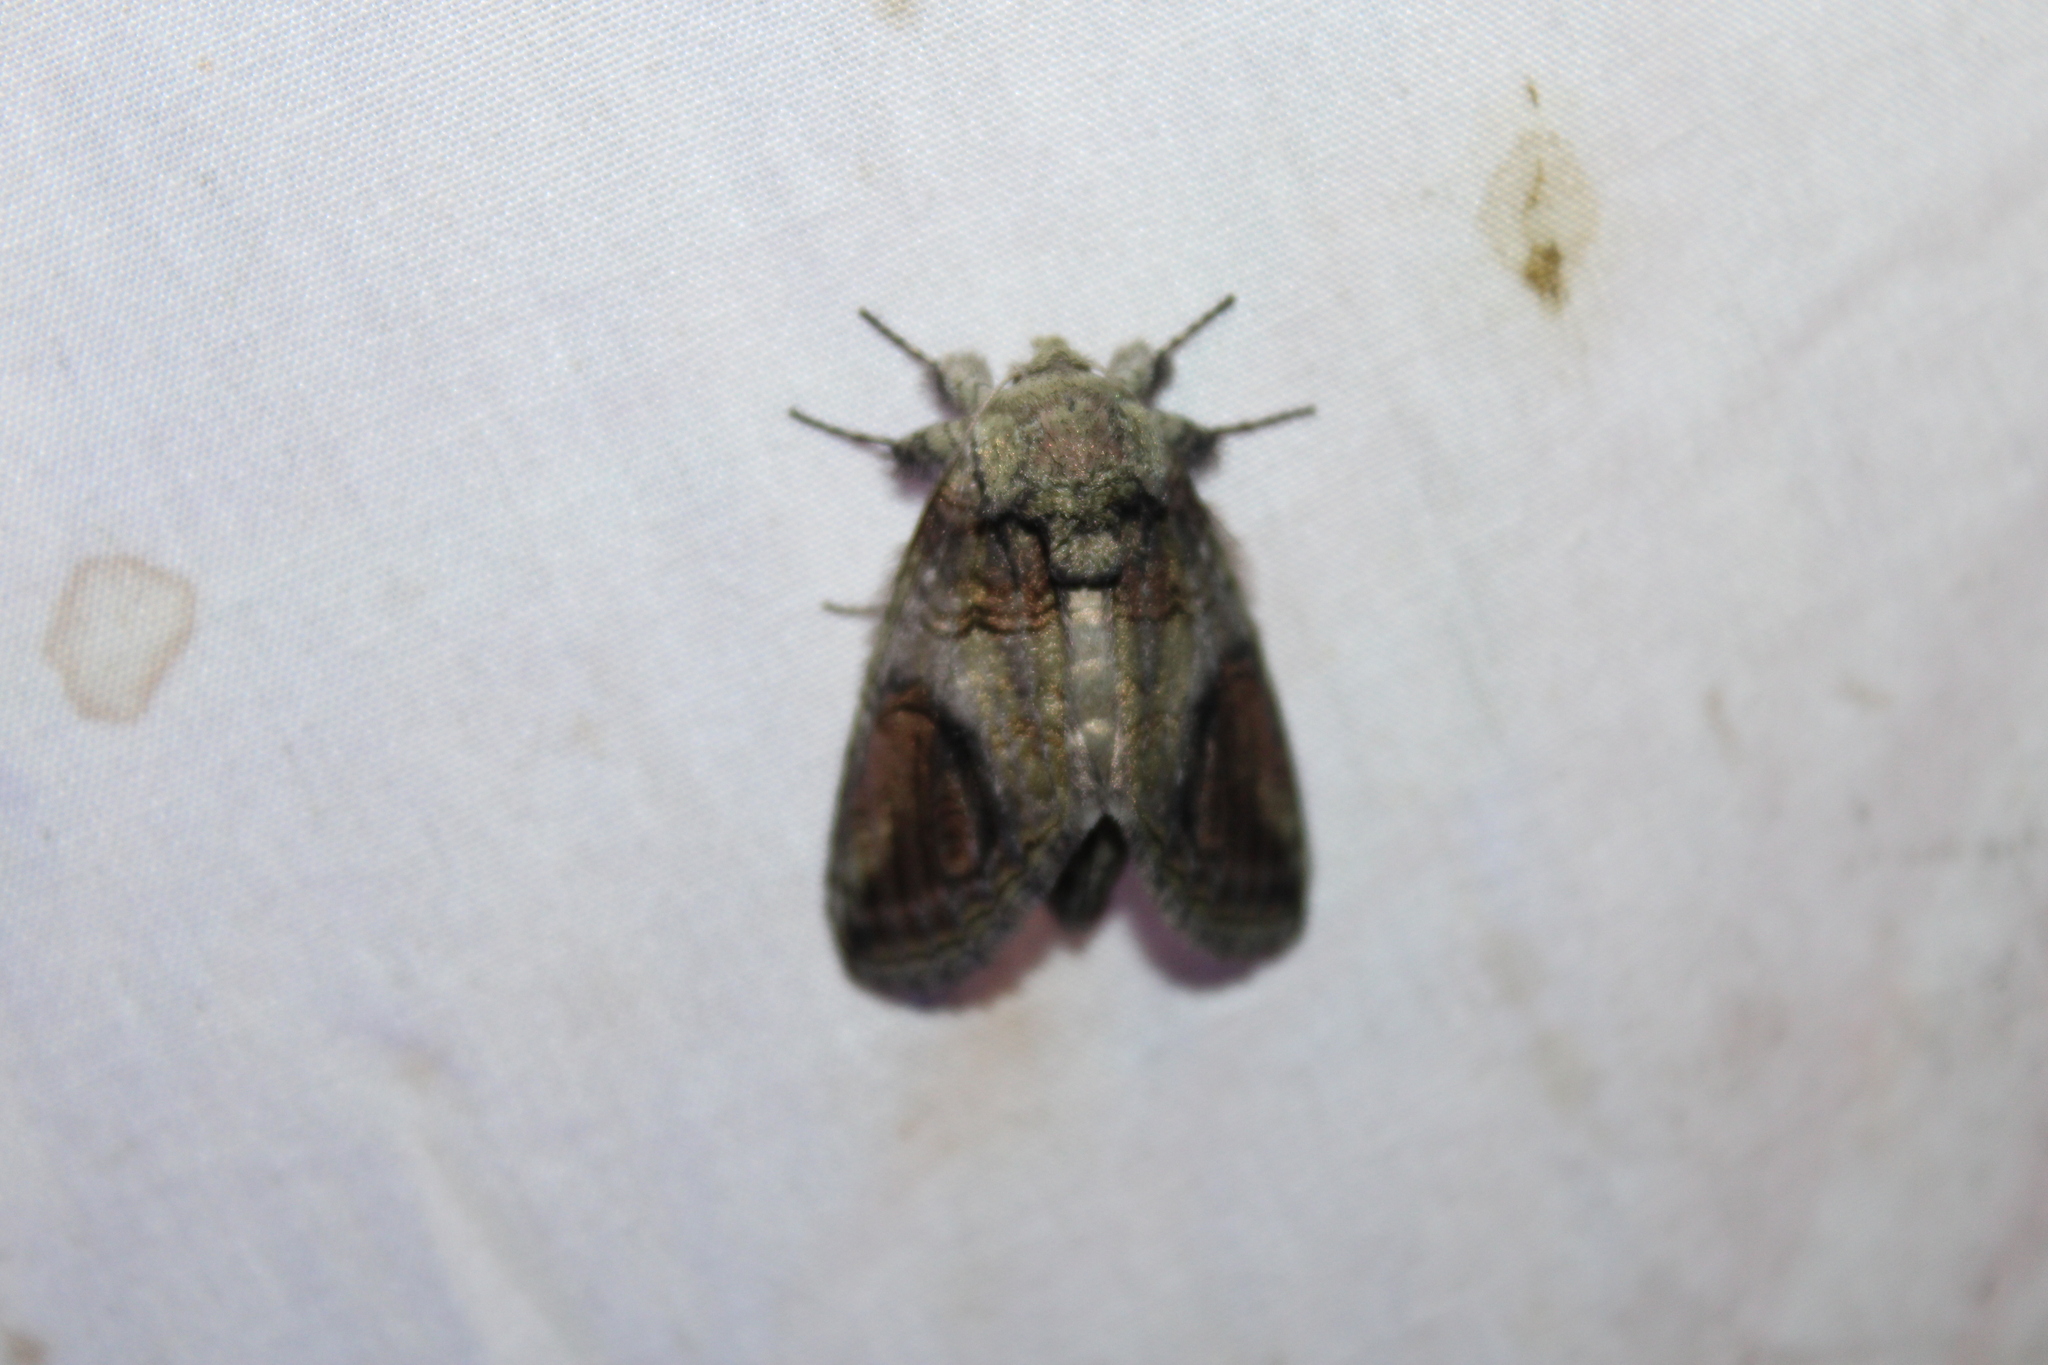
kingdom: Animalia
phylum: Arthropoda
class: Insecta
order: Lepidoptera
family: Notodontidae
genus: Heterocampa
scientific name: Heterocampa obliqua
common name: Oblique heterocampa
